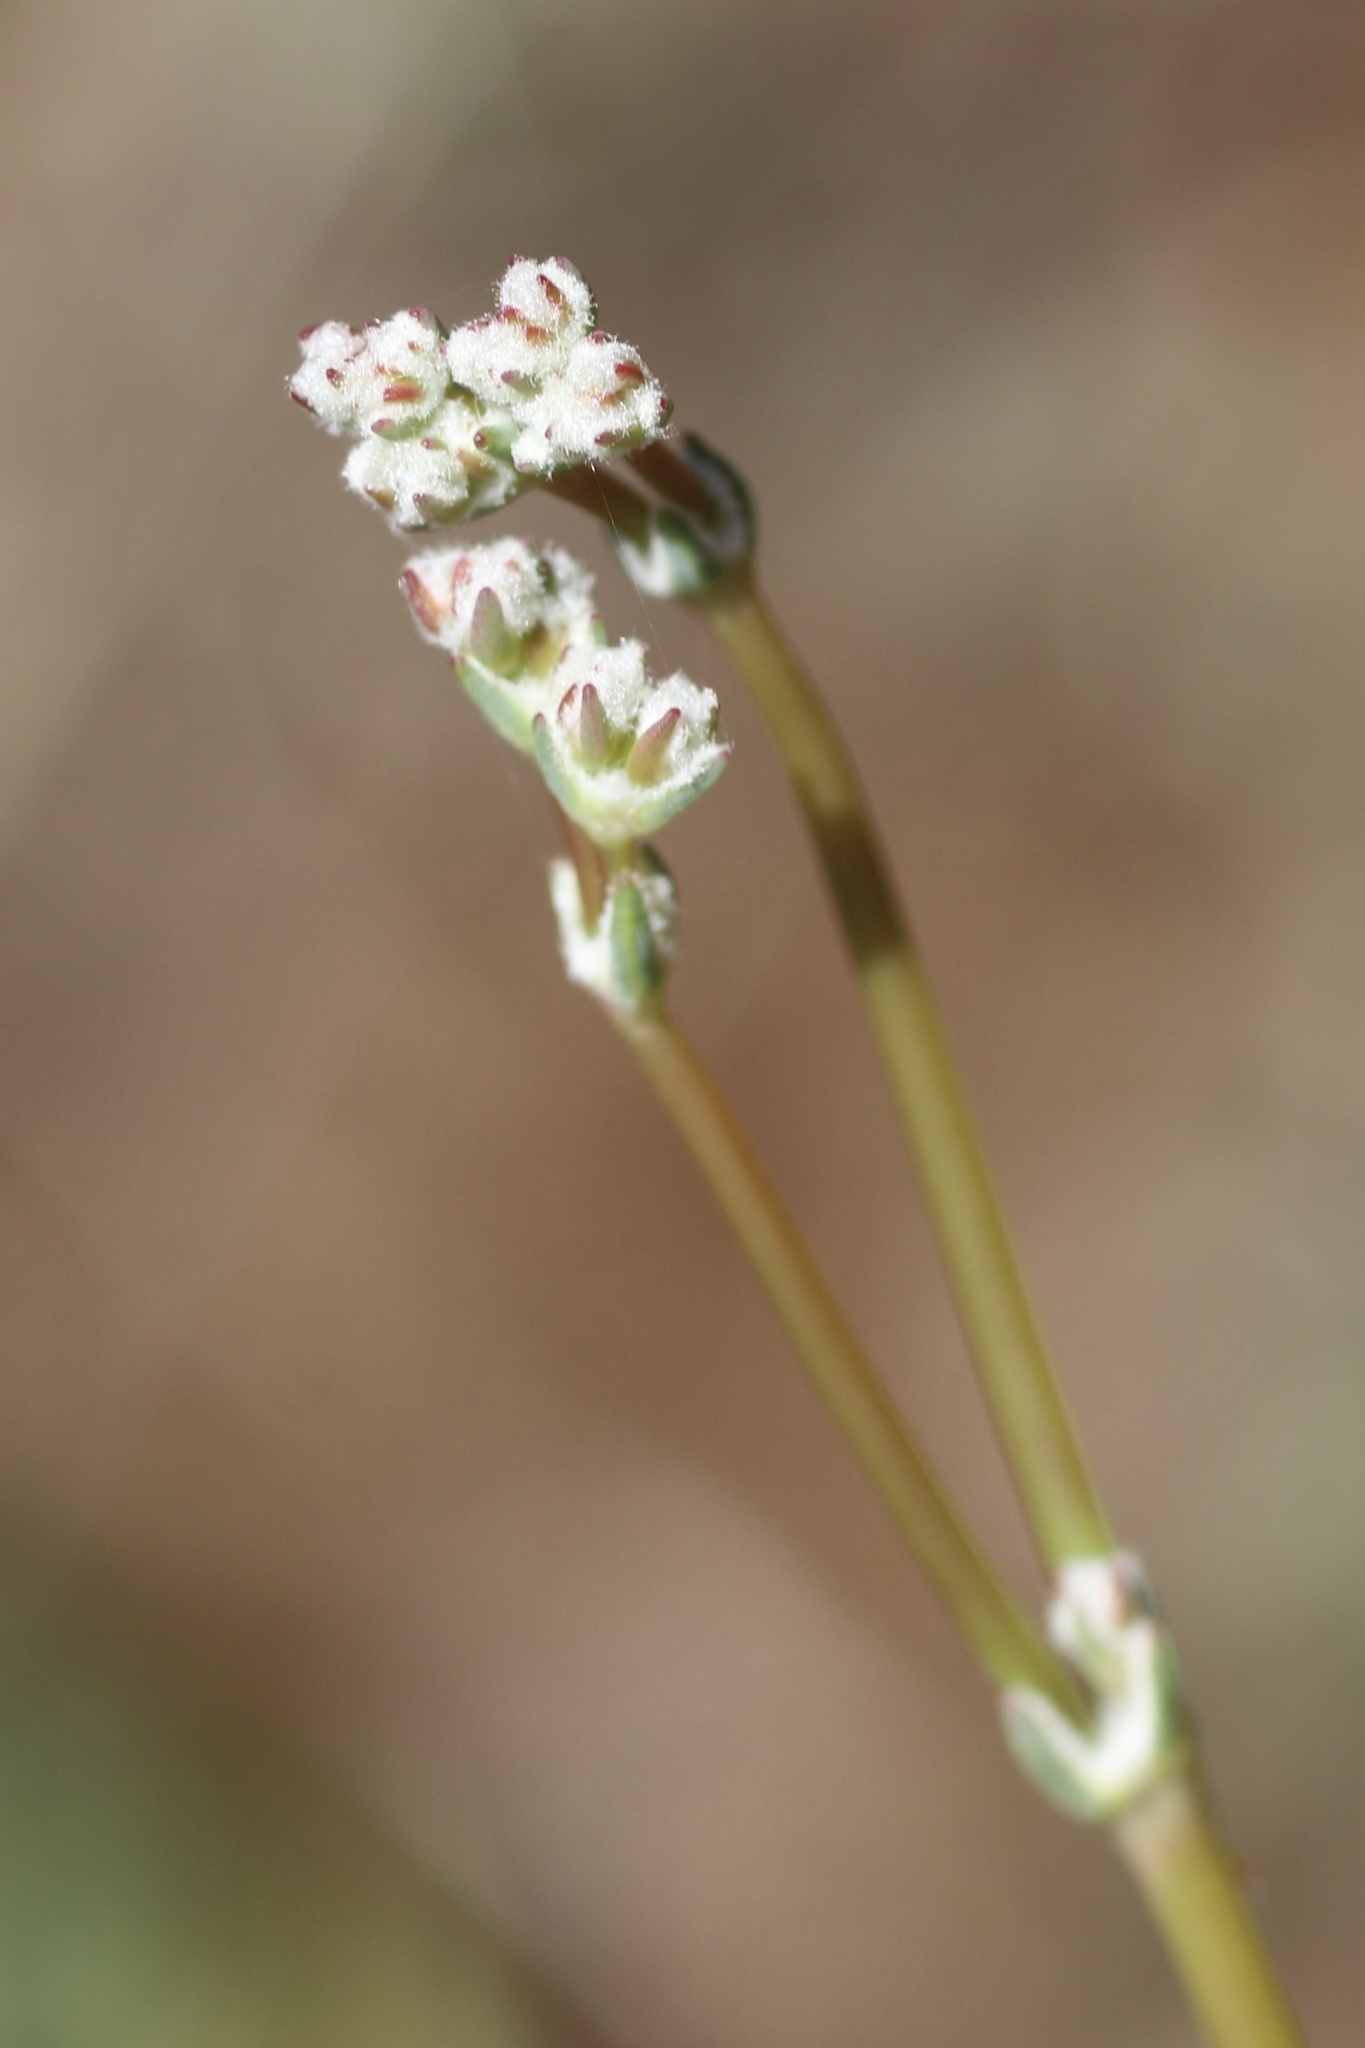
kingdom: Plantae
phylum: Tracheophyta
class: Magnoliopsida
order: Caryophyllales
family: Polygonaceae
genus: Eriogonum
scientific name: Eriogonum nudum
